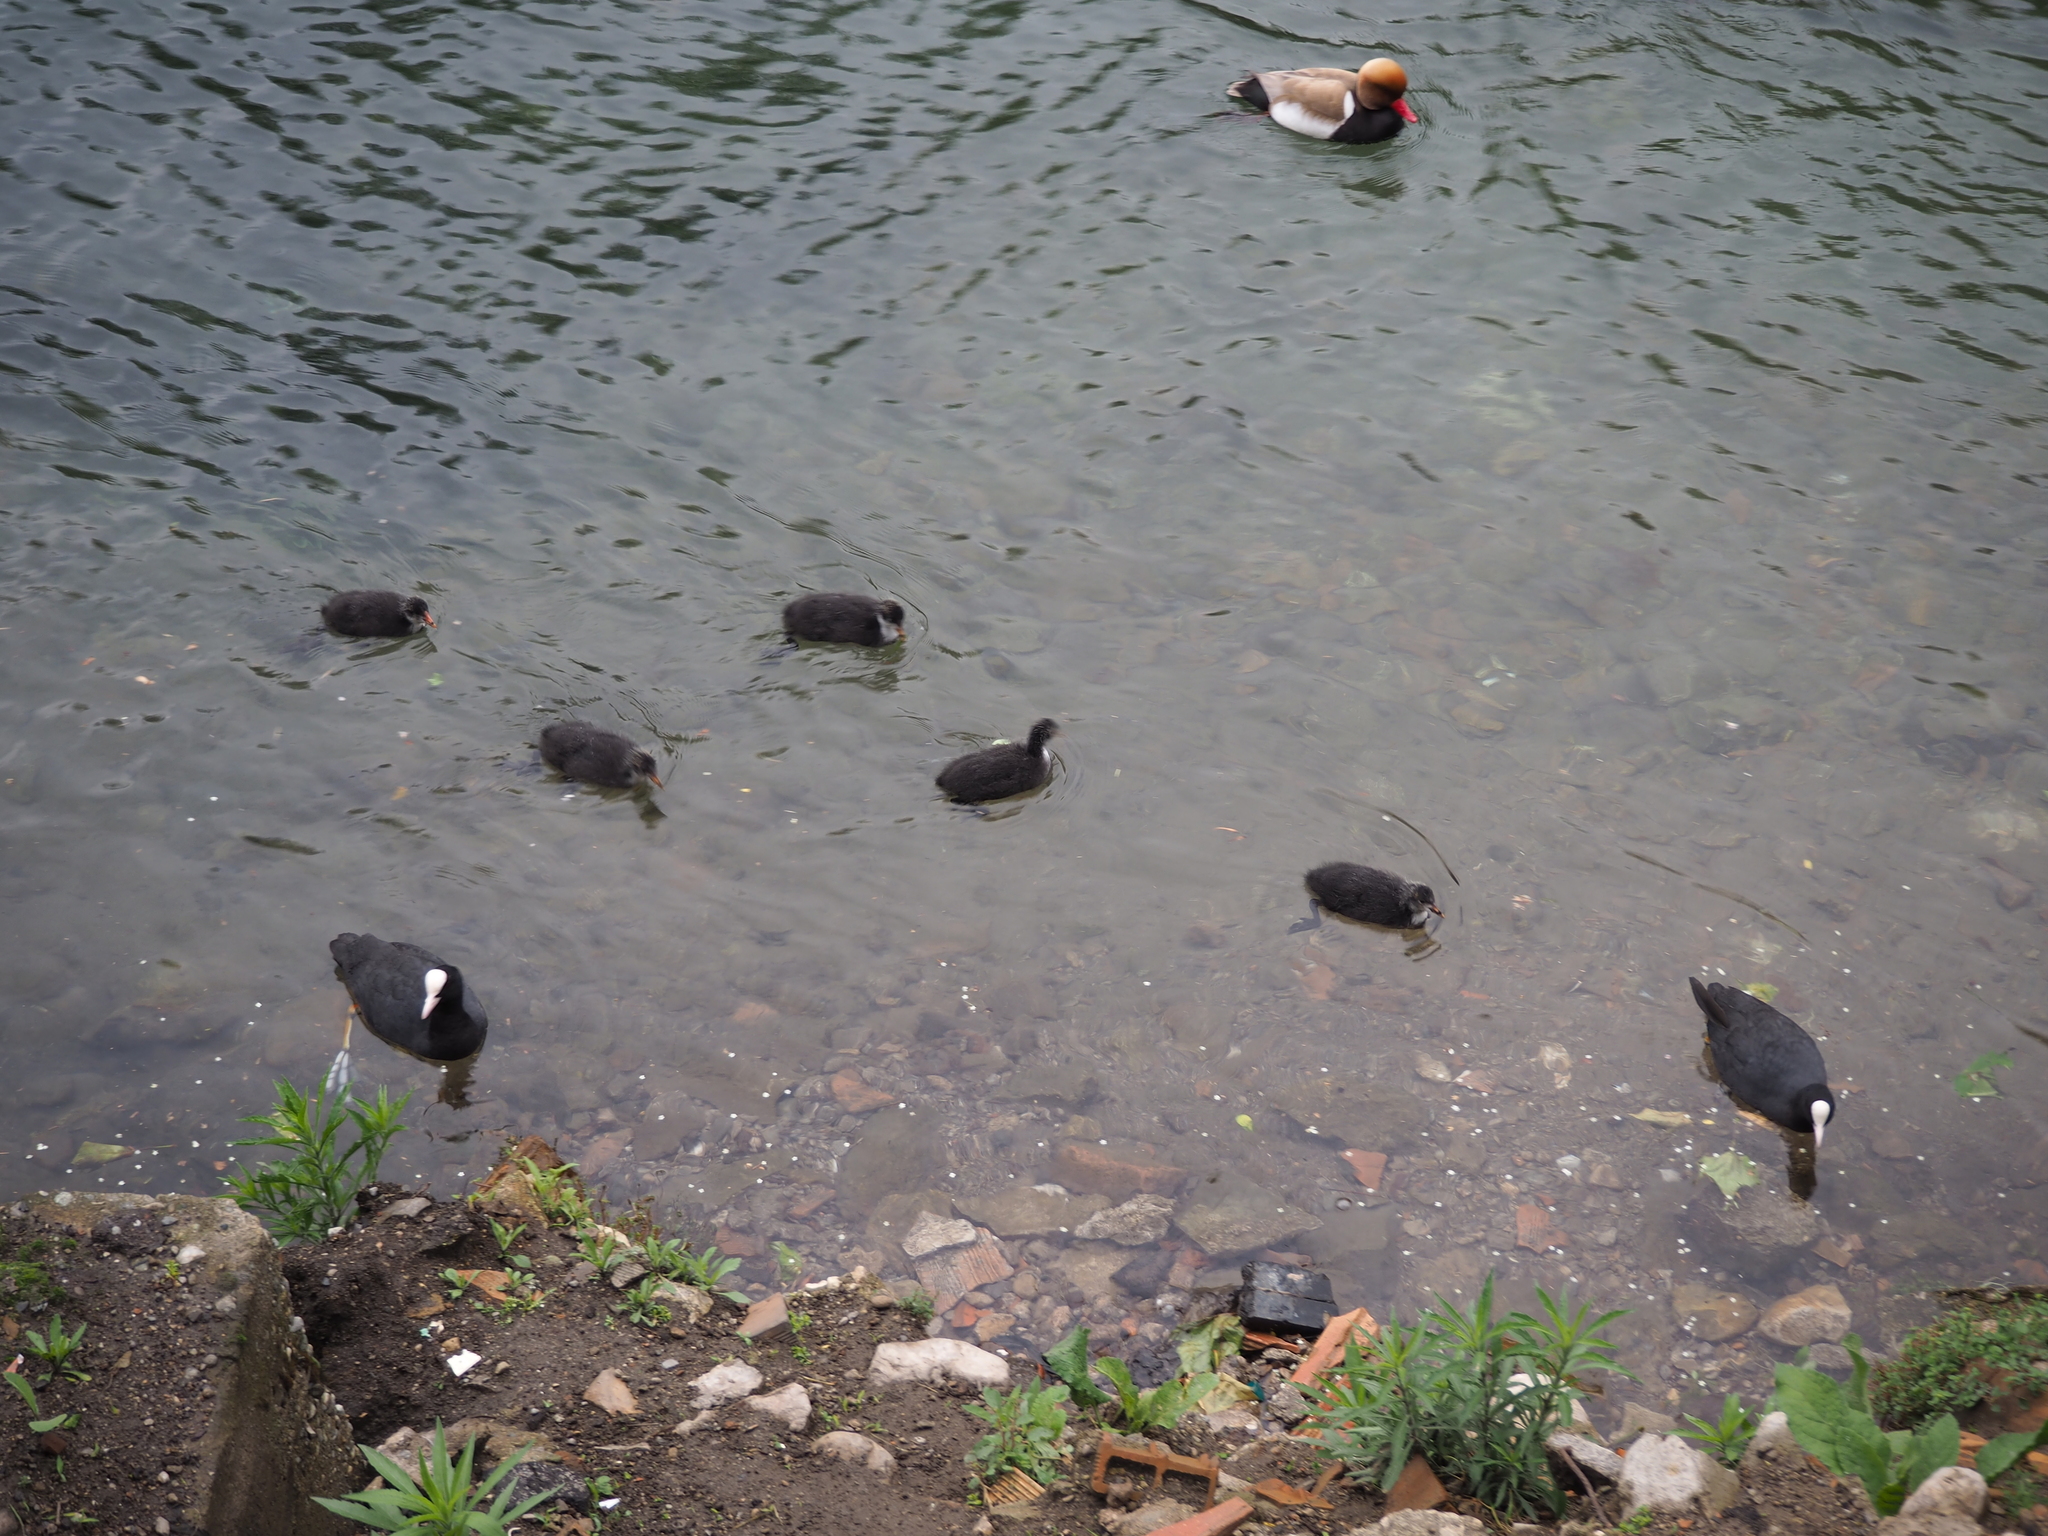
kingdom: Animalia
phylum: Chordata
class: Aves
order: Gruiformes
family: Rallidae
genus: Fulica
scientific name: Fulica atra
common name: Eurasian coot
